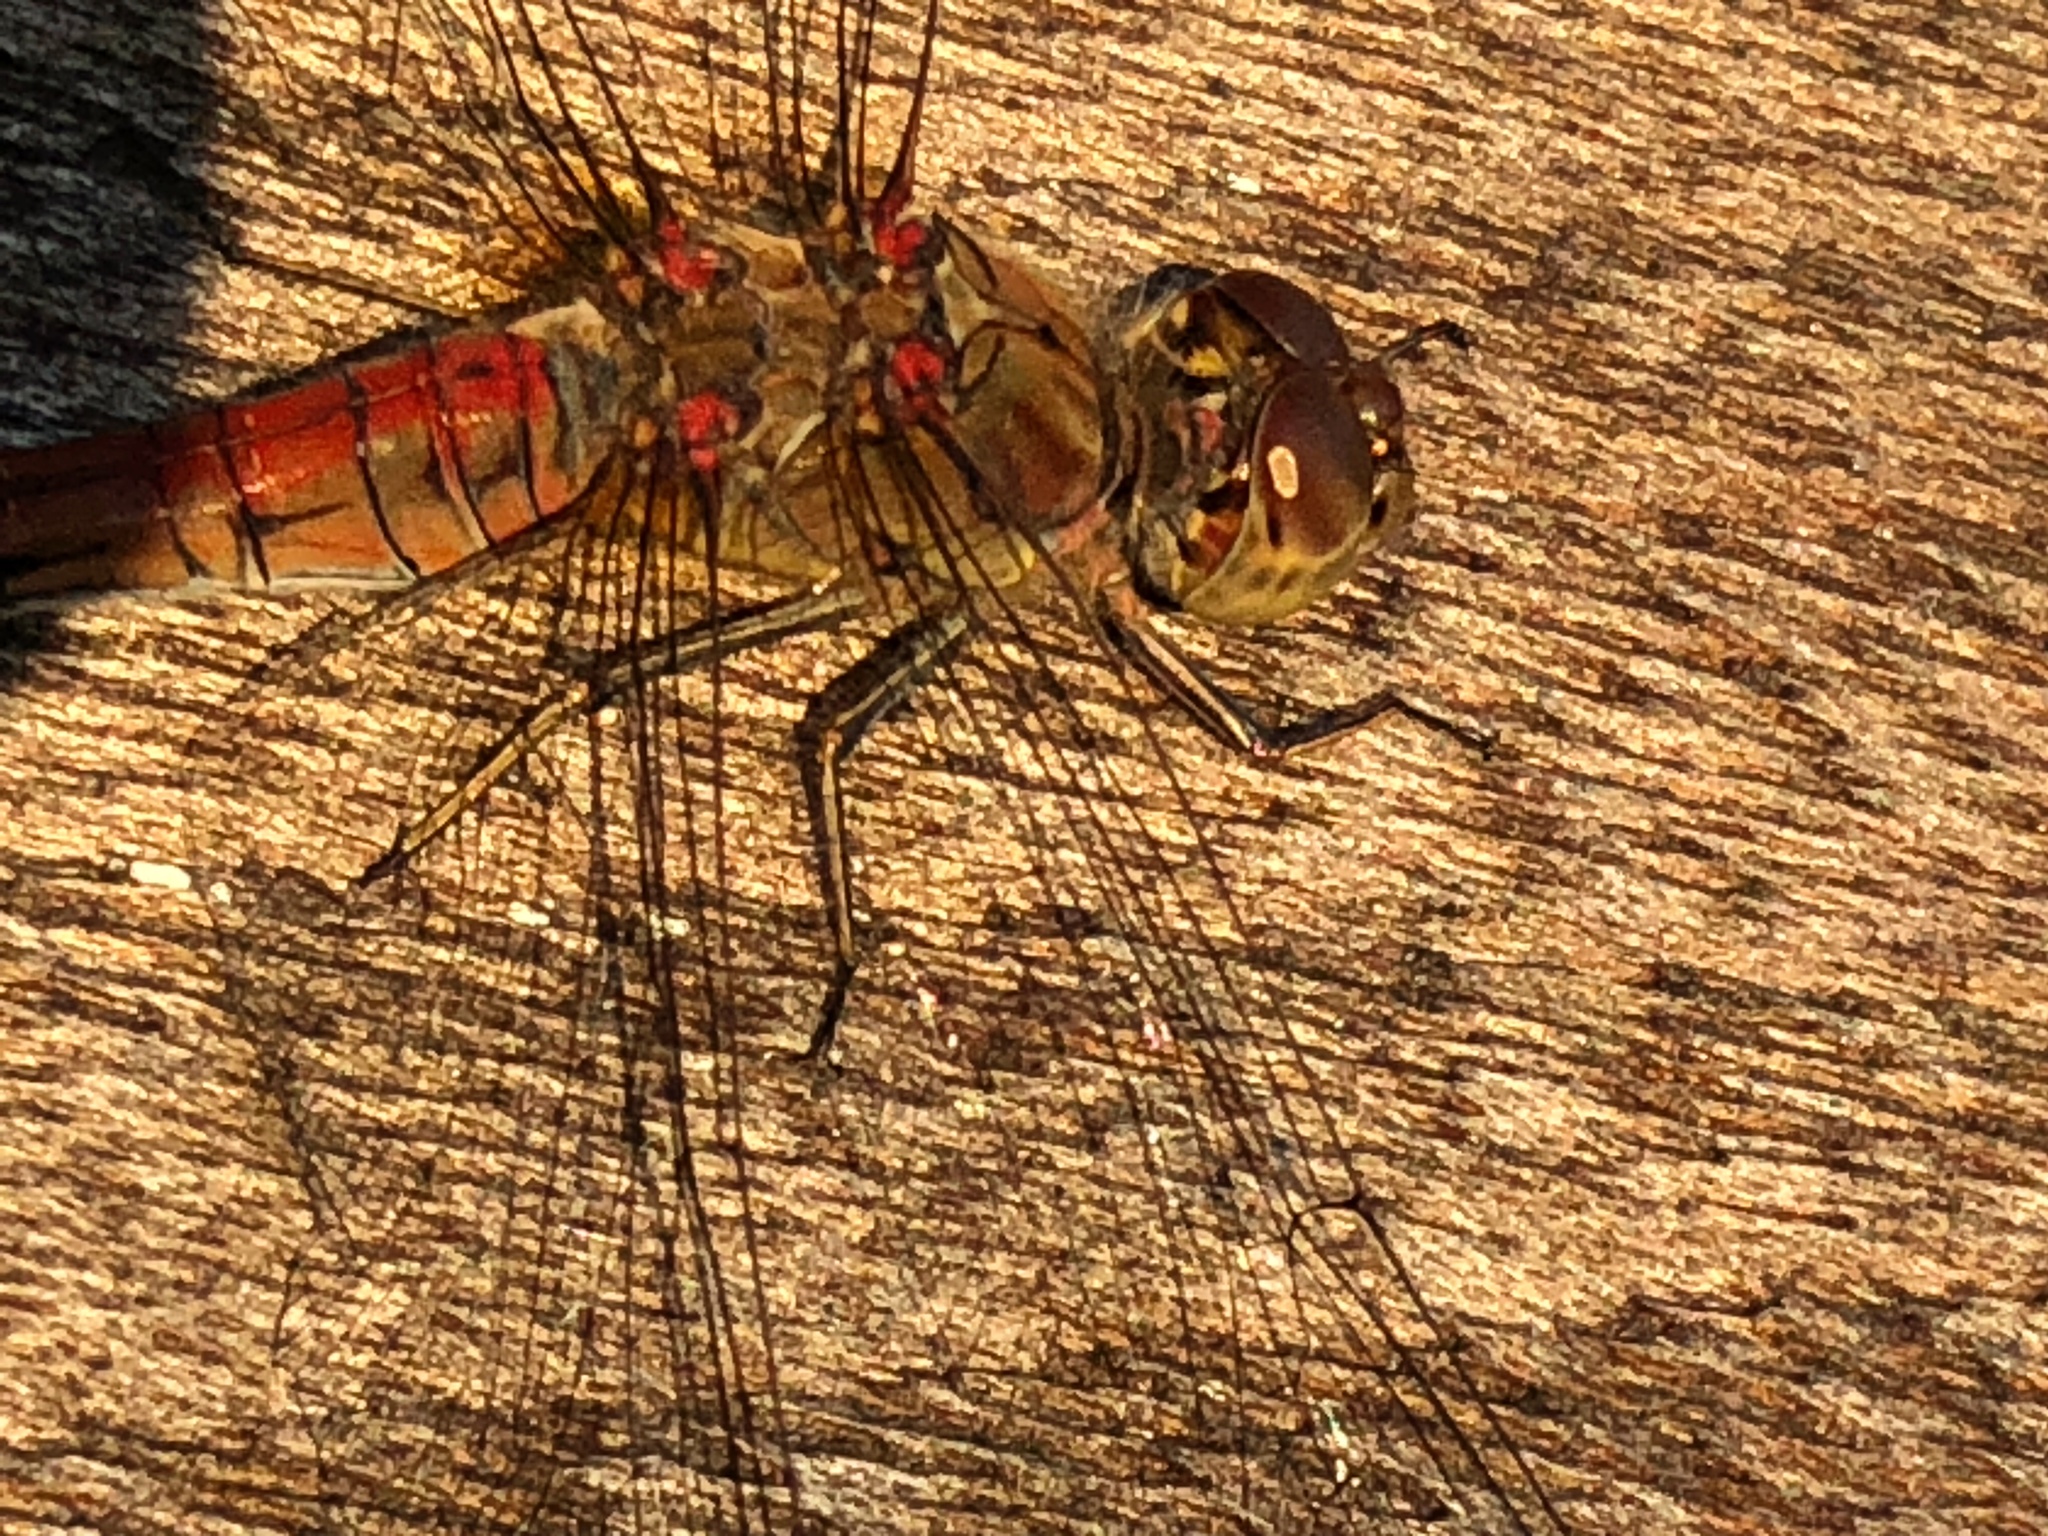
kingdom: Animalia
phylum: Arthropoda
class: Insecta
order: Odonata
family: Libellulidae
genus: Sympetrum
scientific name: Sympetrum striolatum
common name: Common darter
